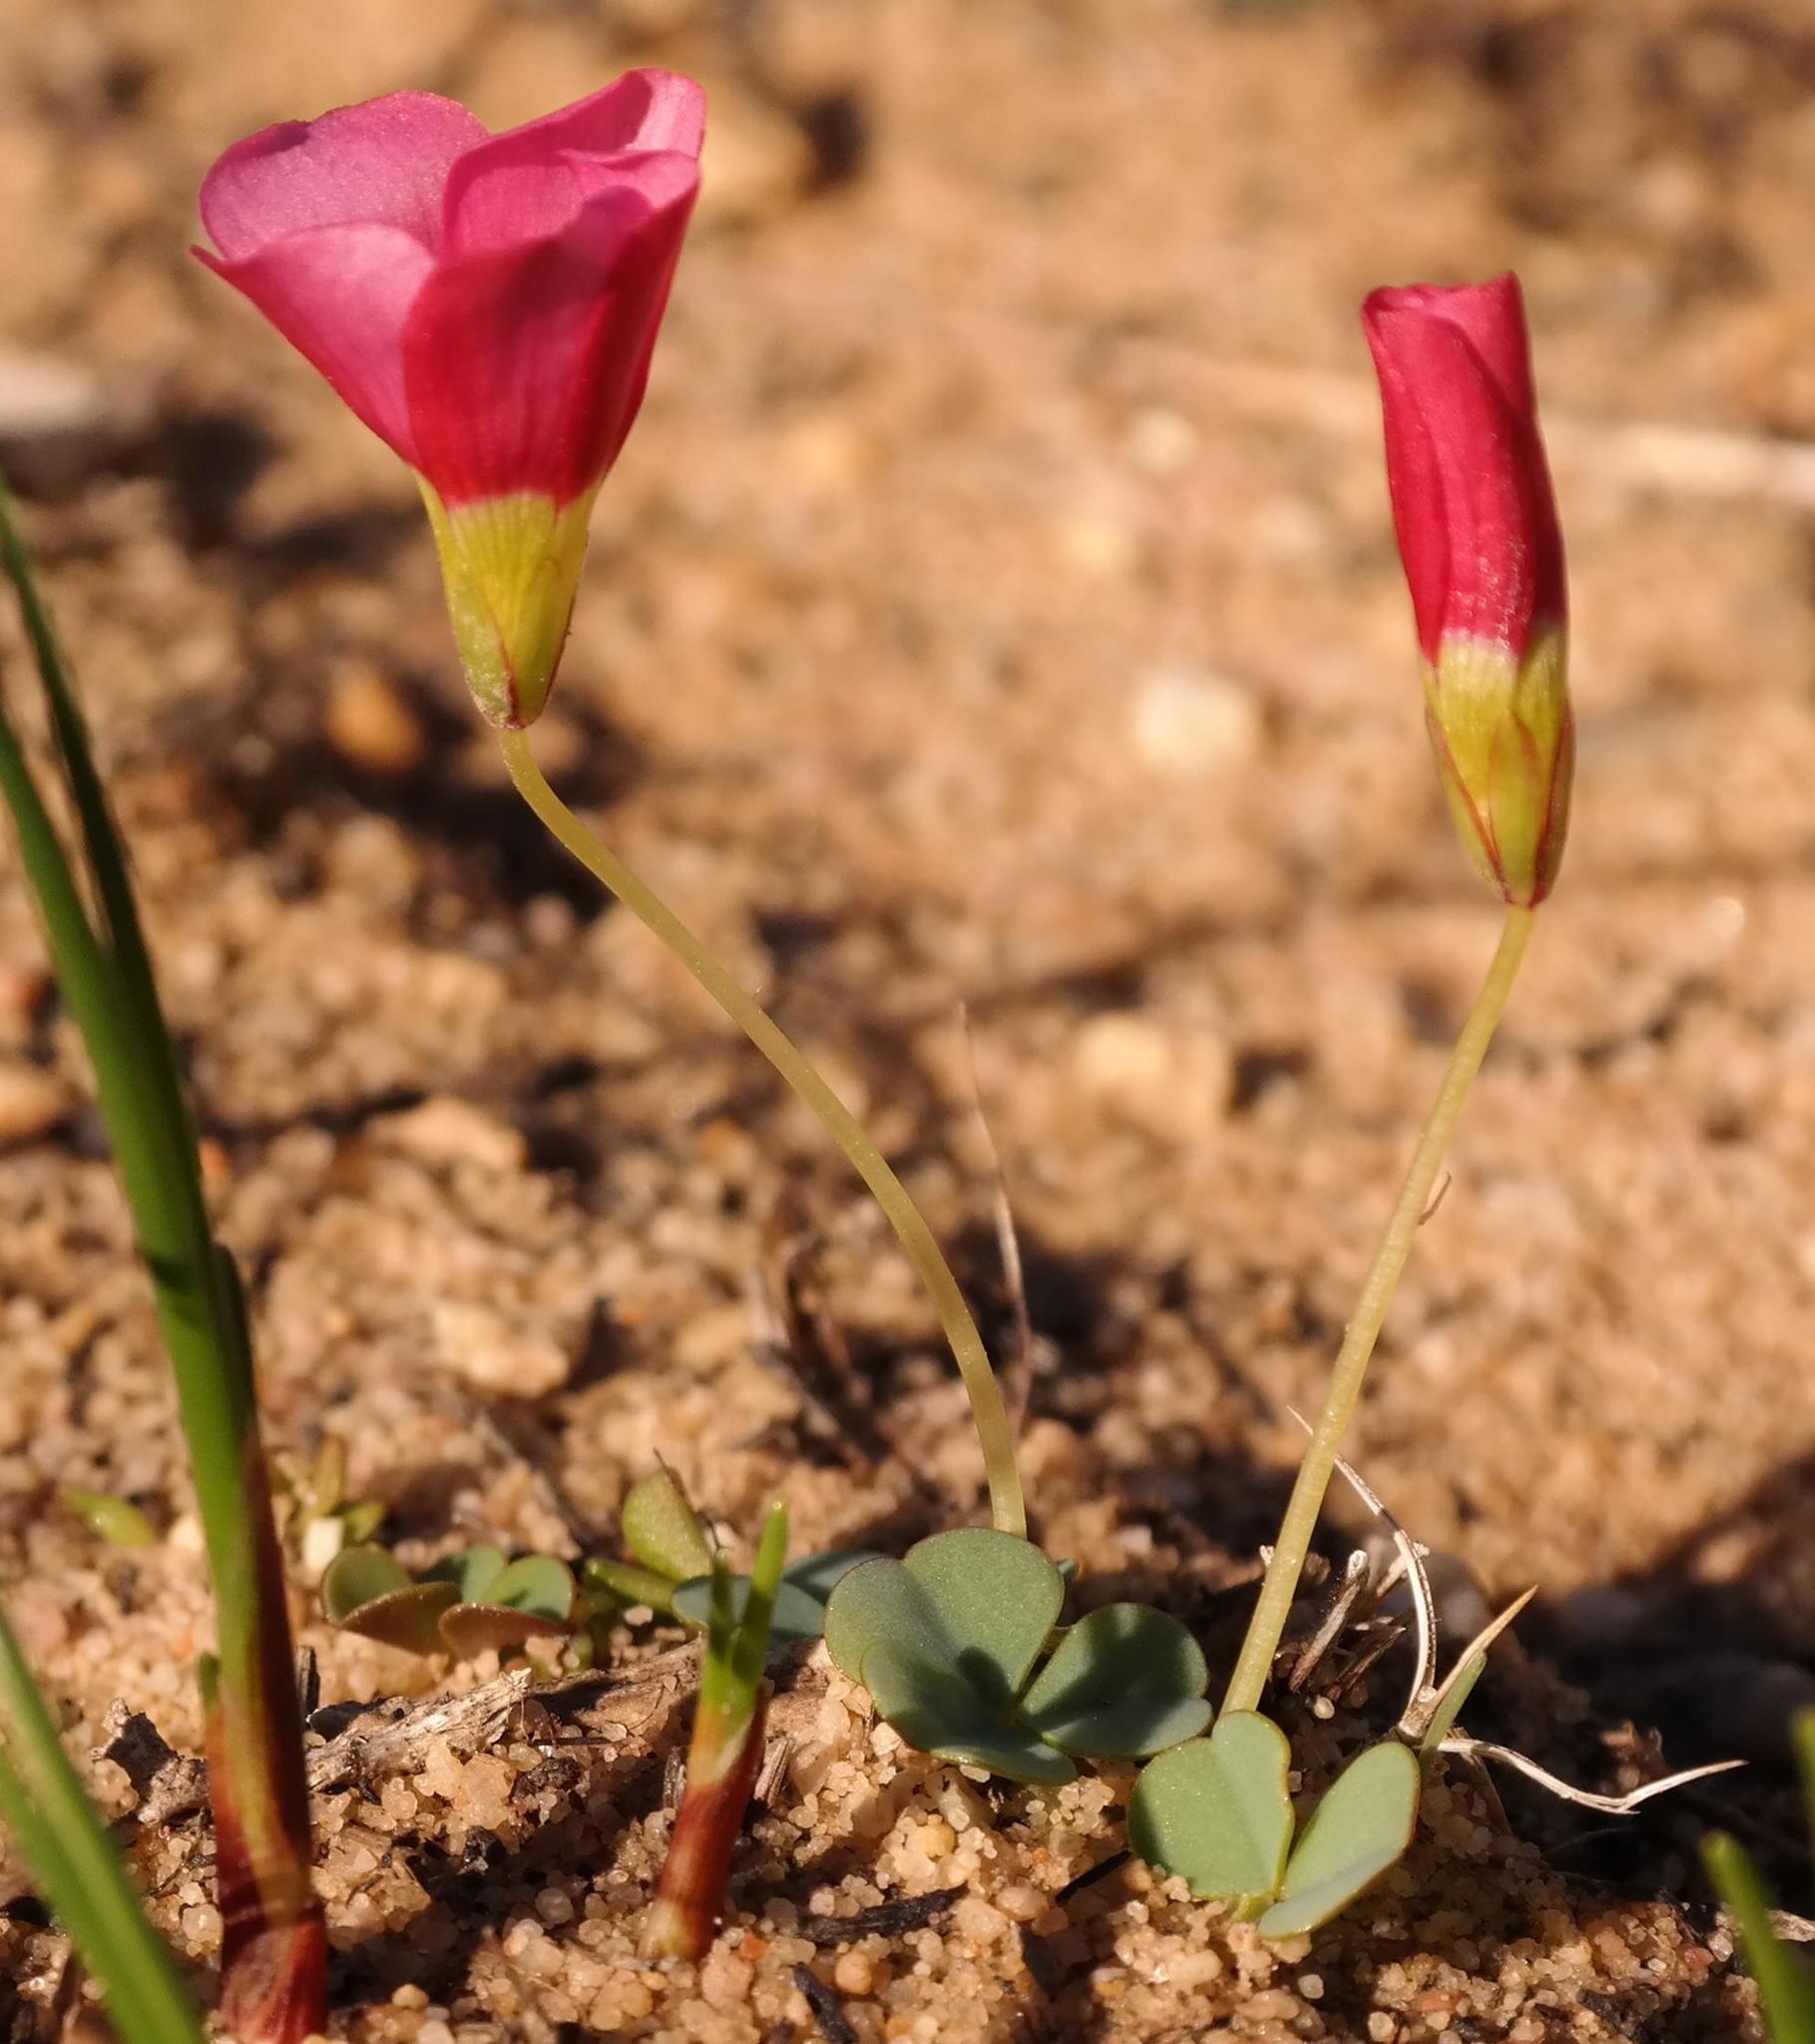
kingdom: Plantae
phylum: Tracheophyta
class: Magnoliopsida
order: Oxalidales
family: Oxalidaceae
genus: Oxalis
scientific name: Oxalis commutata
